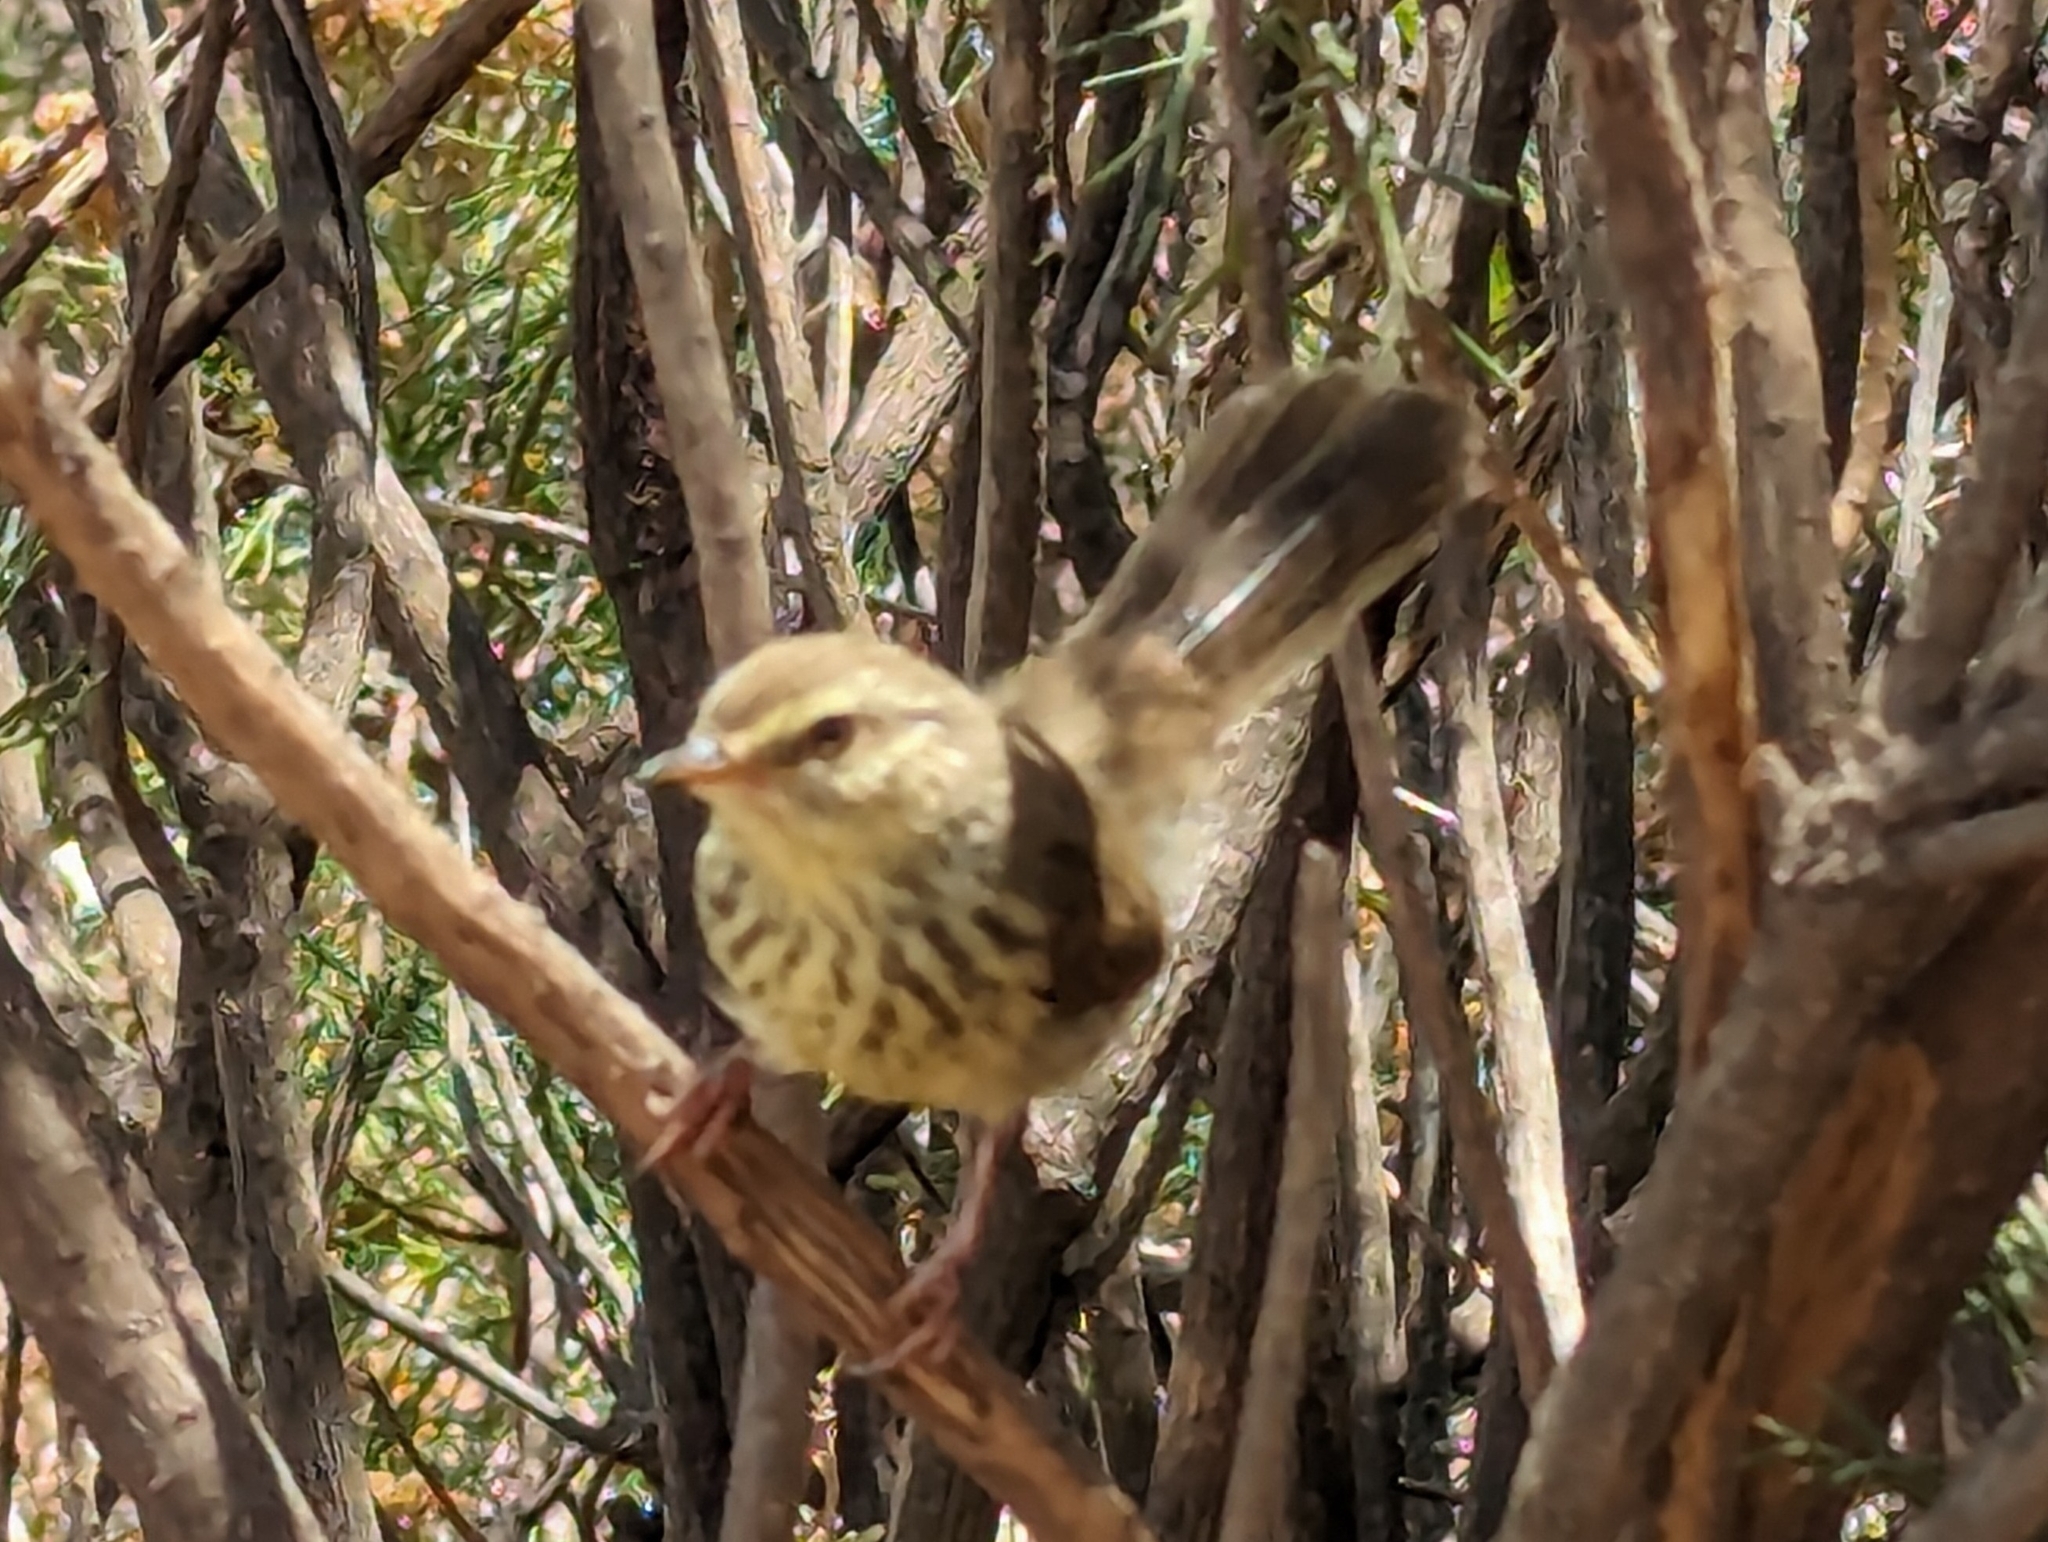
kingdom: Animalia
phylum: Chordata
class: Aves
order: Passeriformes
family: Cisticolidae
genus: Prinia
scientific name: Prinia maculosa
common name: Karoo prinia
